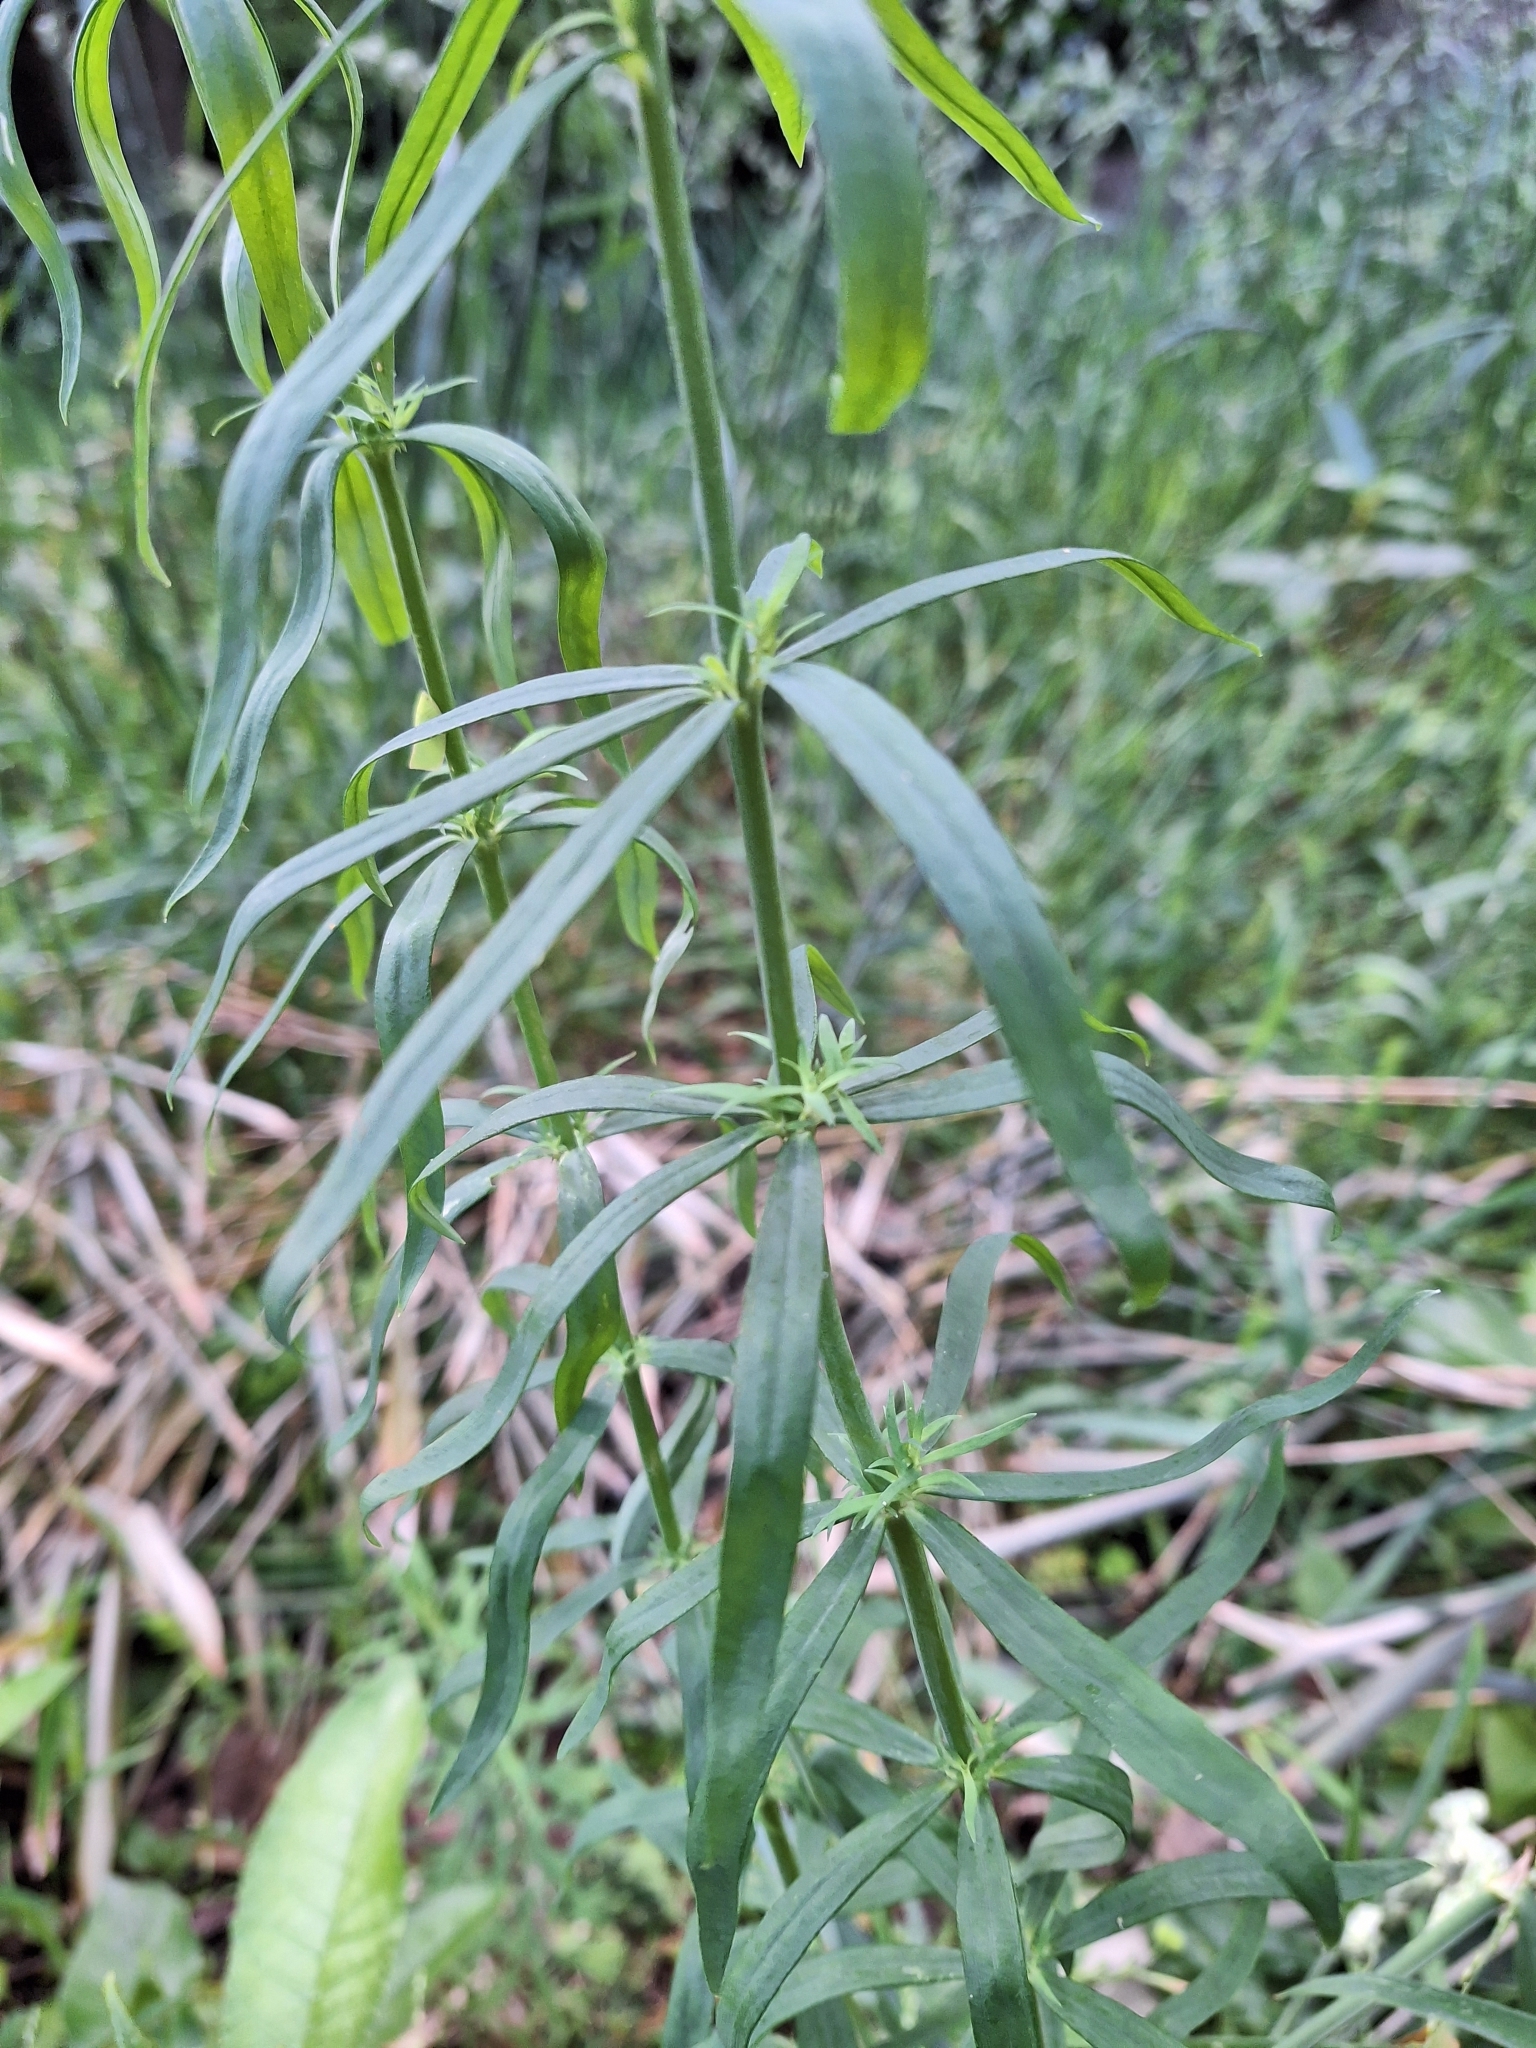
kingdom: Plantae
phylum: Tracheophyta
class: Magnoliopsida
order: Lamiales
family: Plantaginaceae
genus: Linaria
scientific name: Linaria purpurea
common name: Purple toadflax
